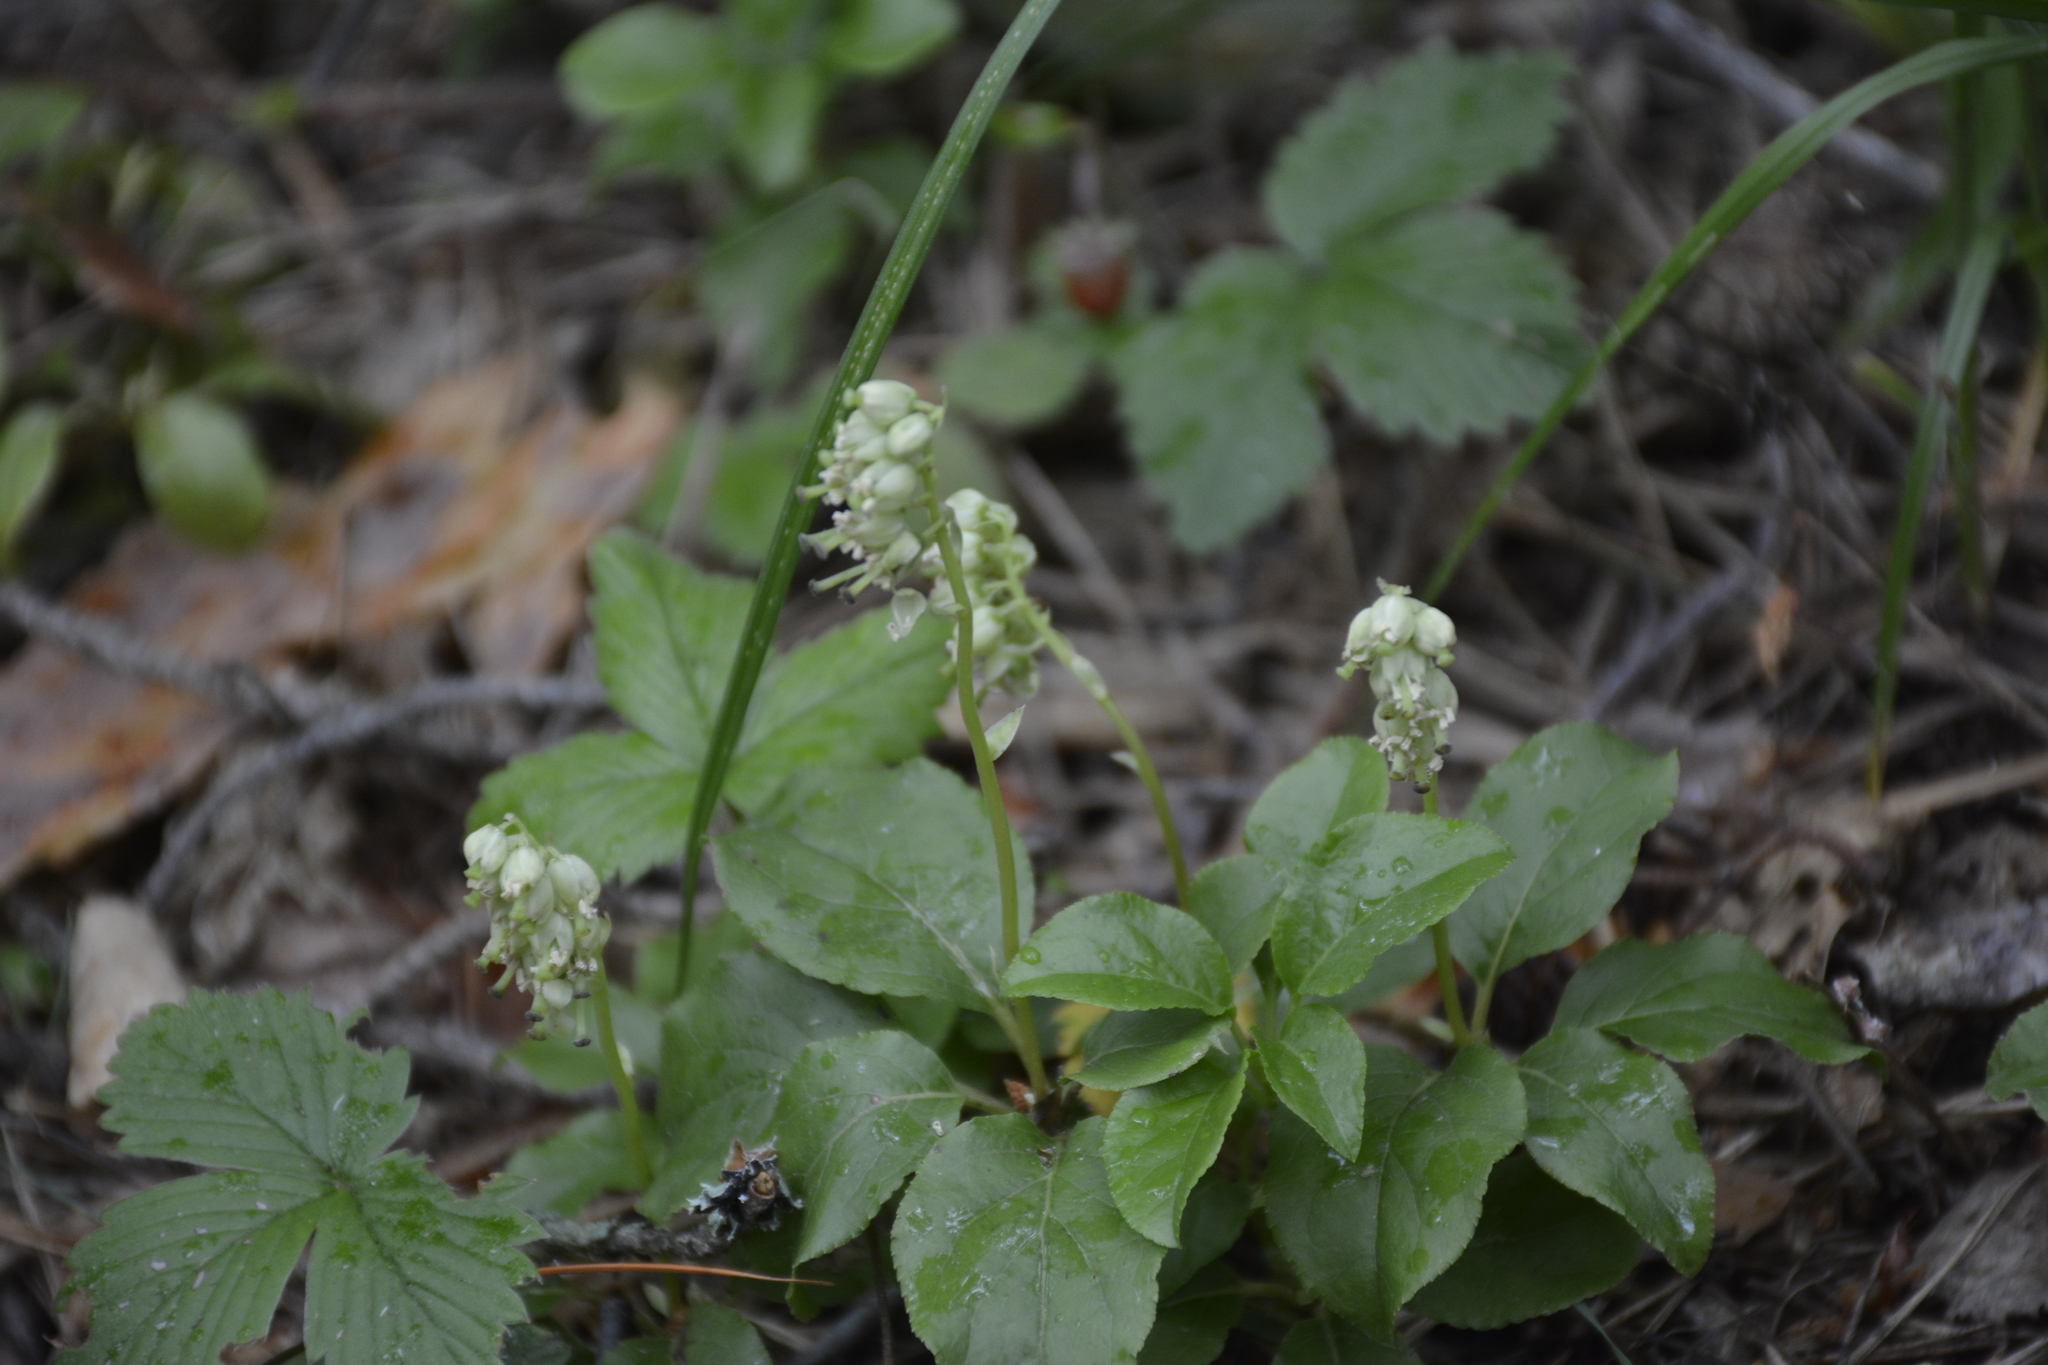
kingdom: Plantae
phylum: Tracheophyta
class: Magnoliopsida
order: Ericales
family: Ericaceae
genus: Orthilia
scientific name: Orthilia secunda
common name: One-sided orthilia
